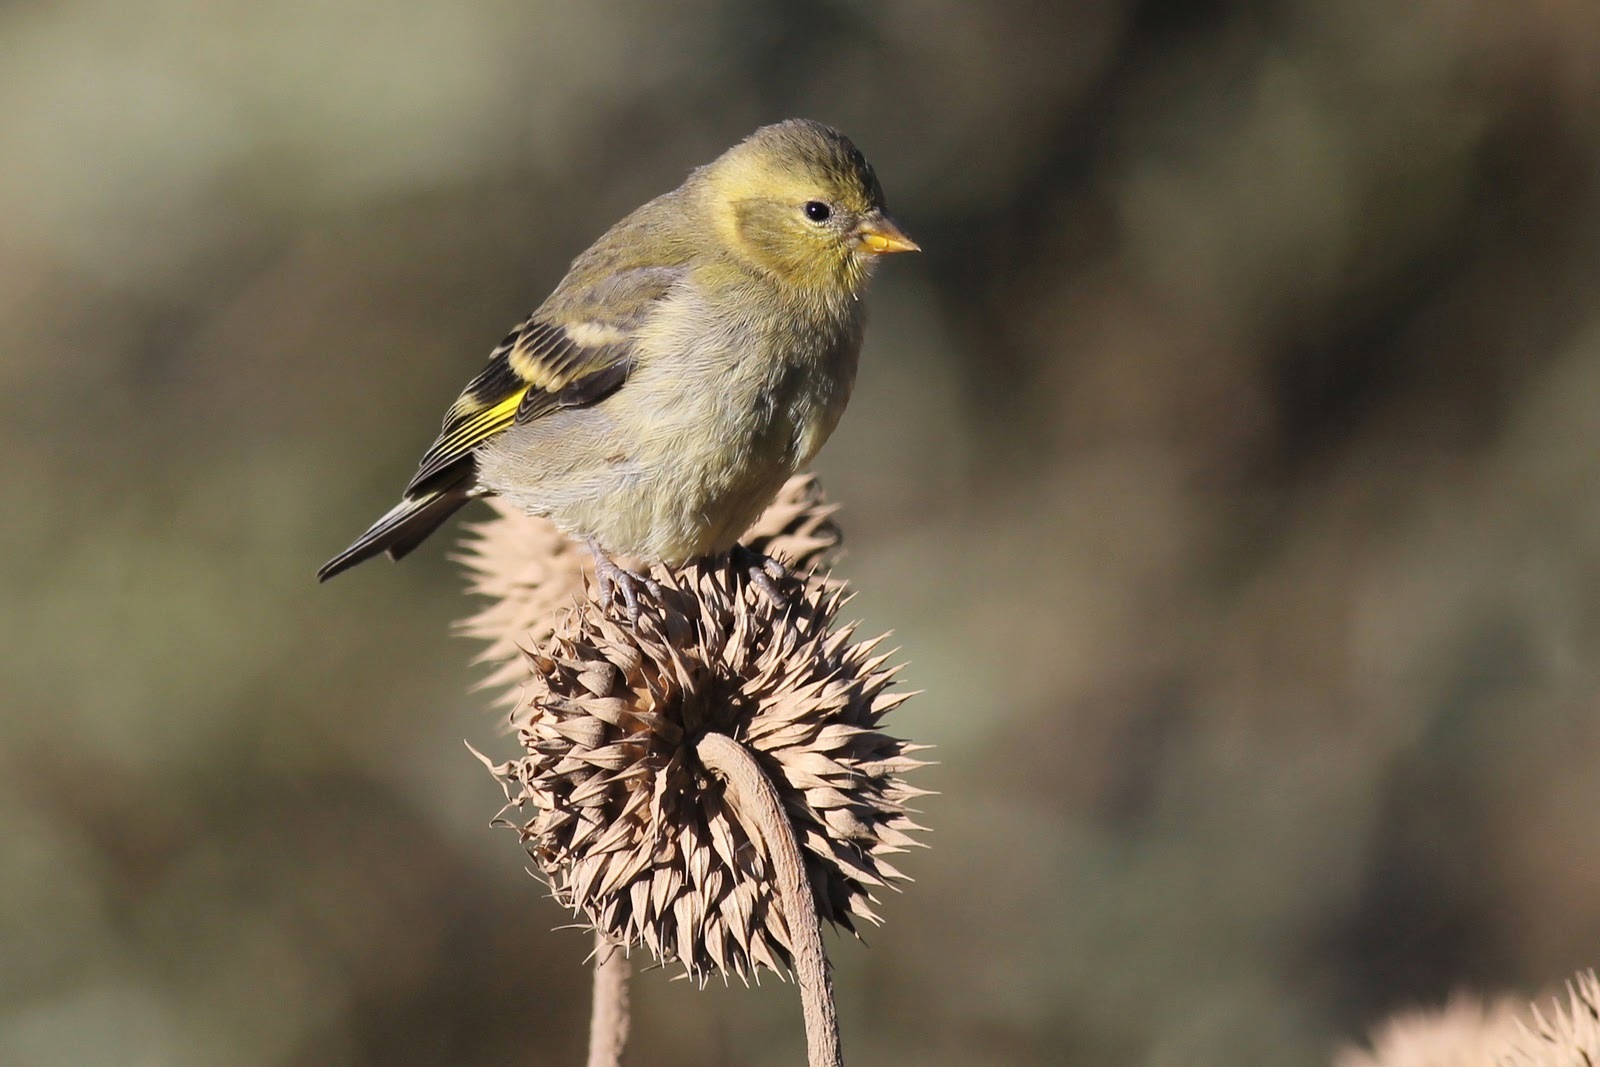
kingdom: Animalia
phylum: Chordata
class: Aves
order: Passeriformes
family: Fringillidae
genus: Spinus
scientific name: Spinus barbatus
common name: Black-chinned siskin
